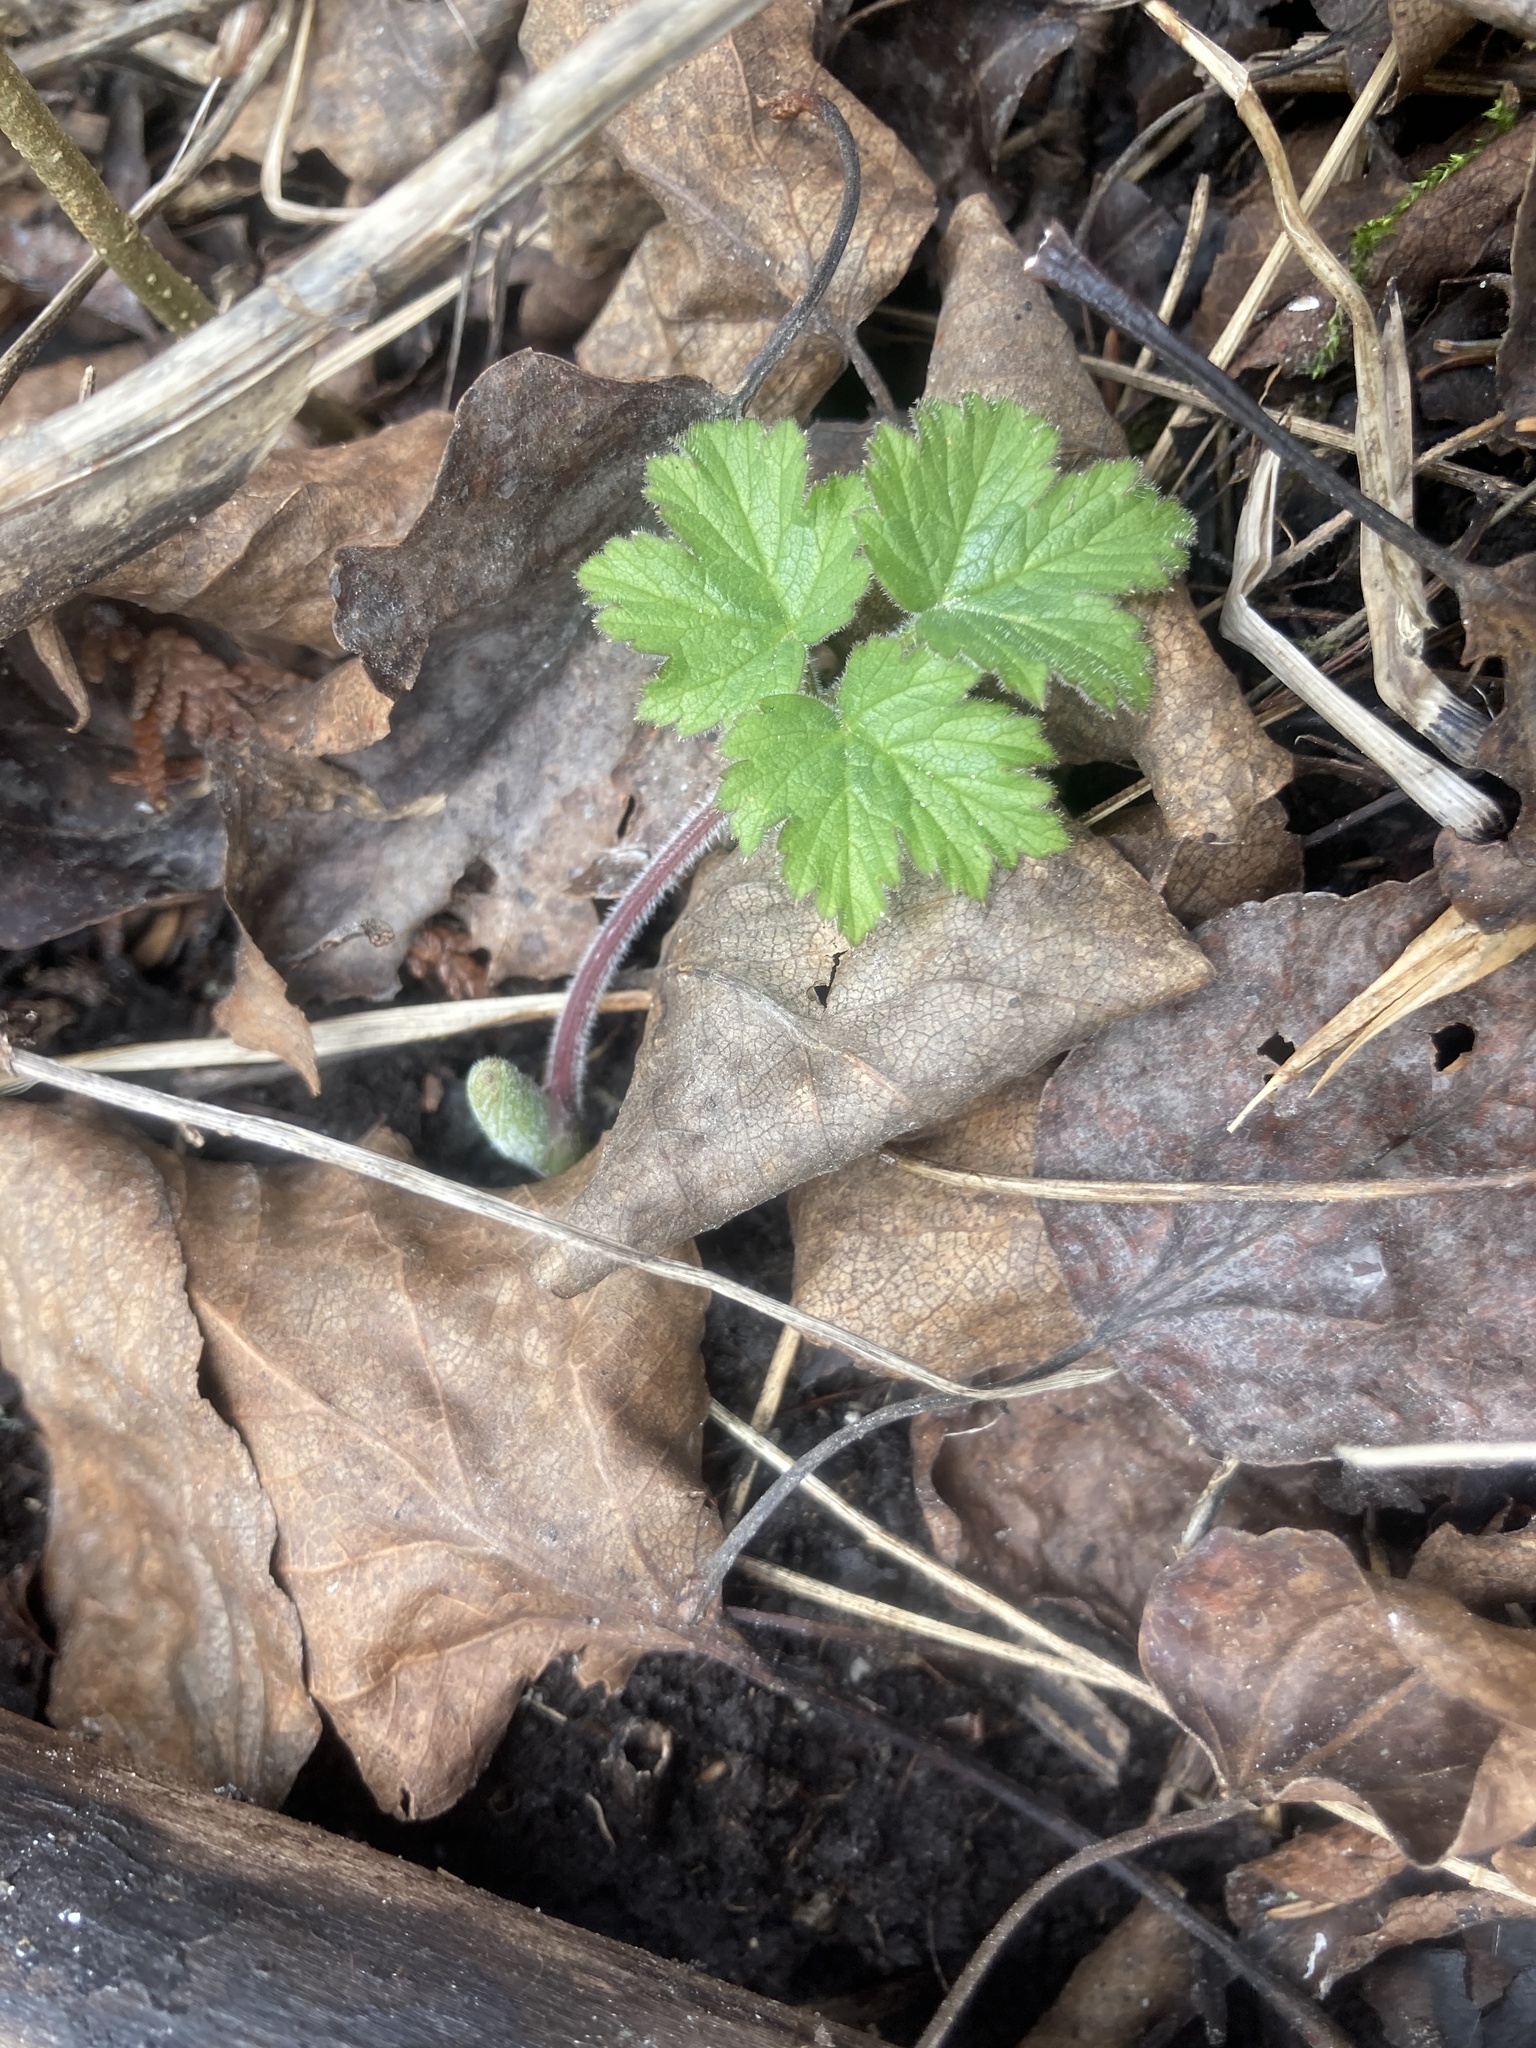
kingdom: Plantae
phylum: Tracheophyta
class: Magnoliopsida
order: Apiales
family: Apiaceae
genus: Heracleum
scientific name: Heracleum maximum
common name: American cow parsnip
